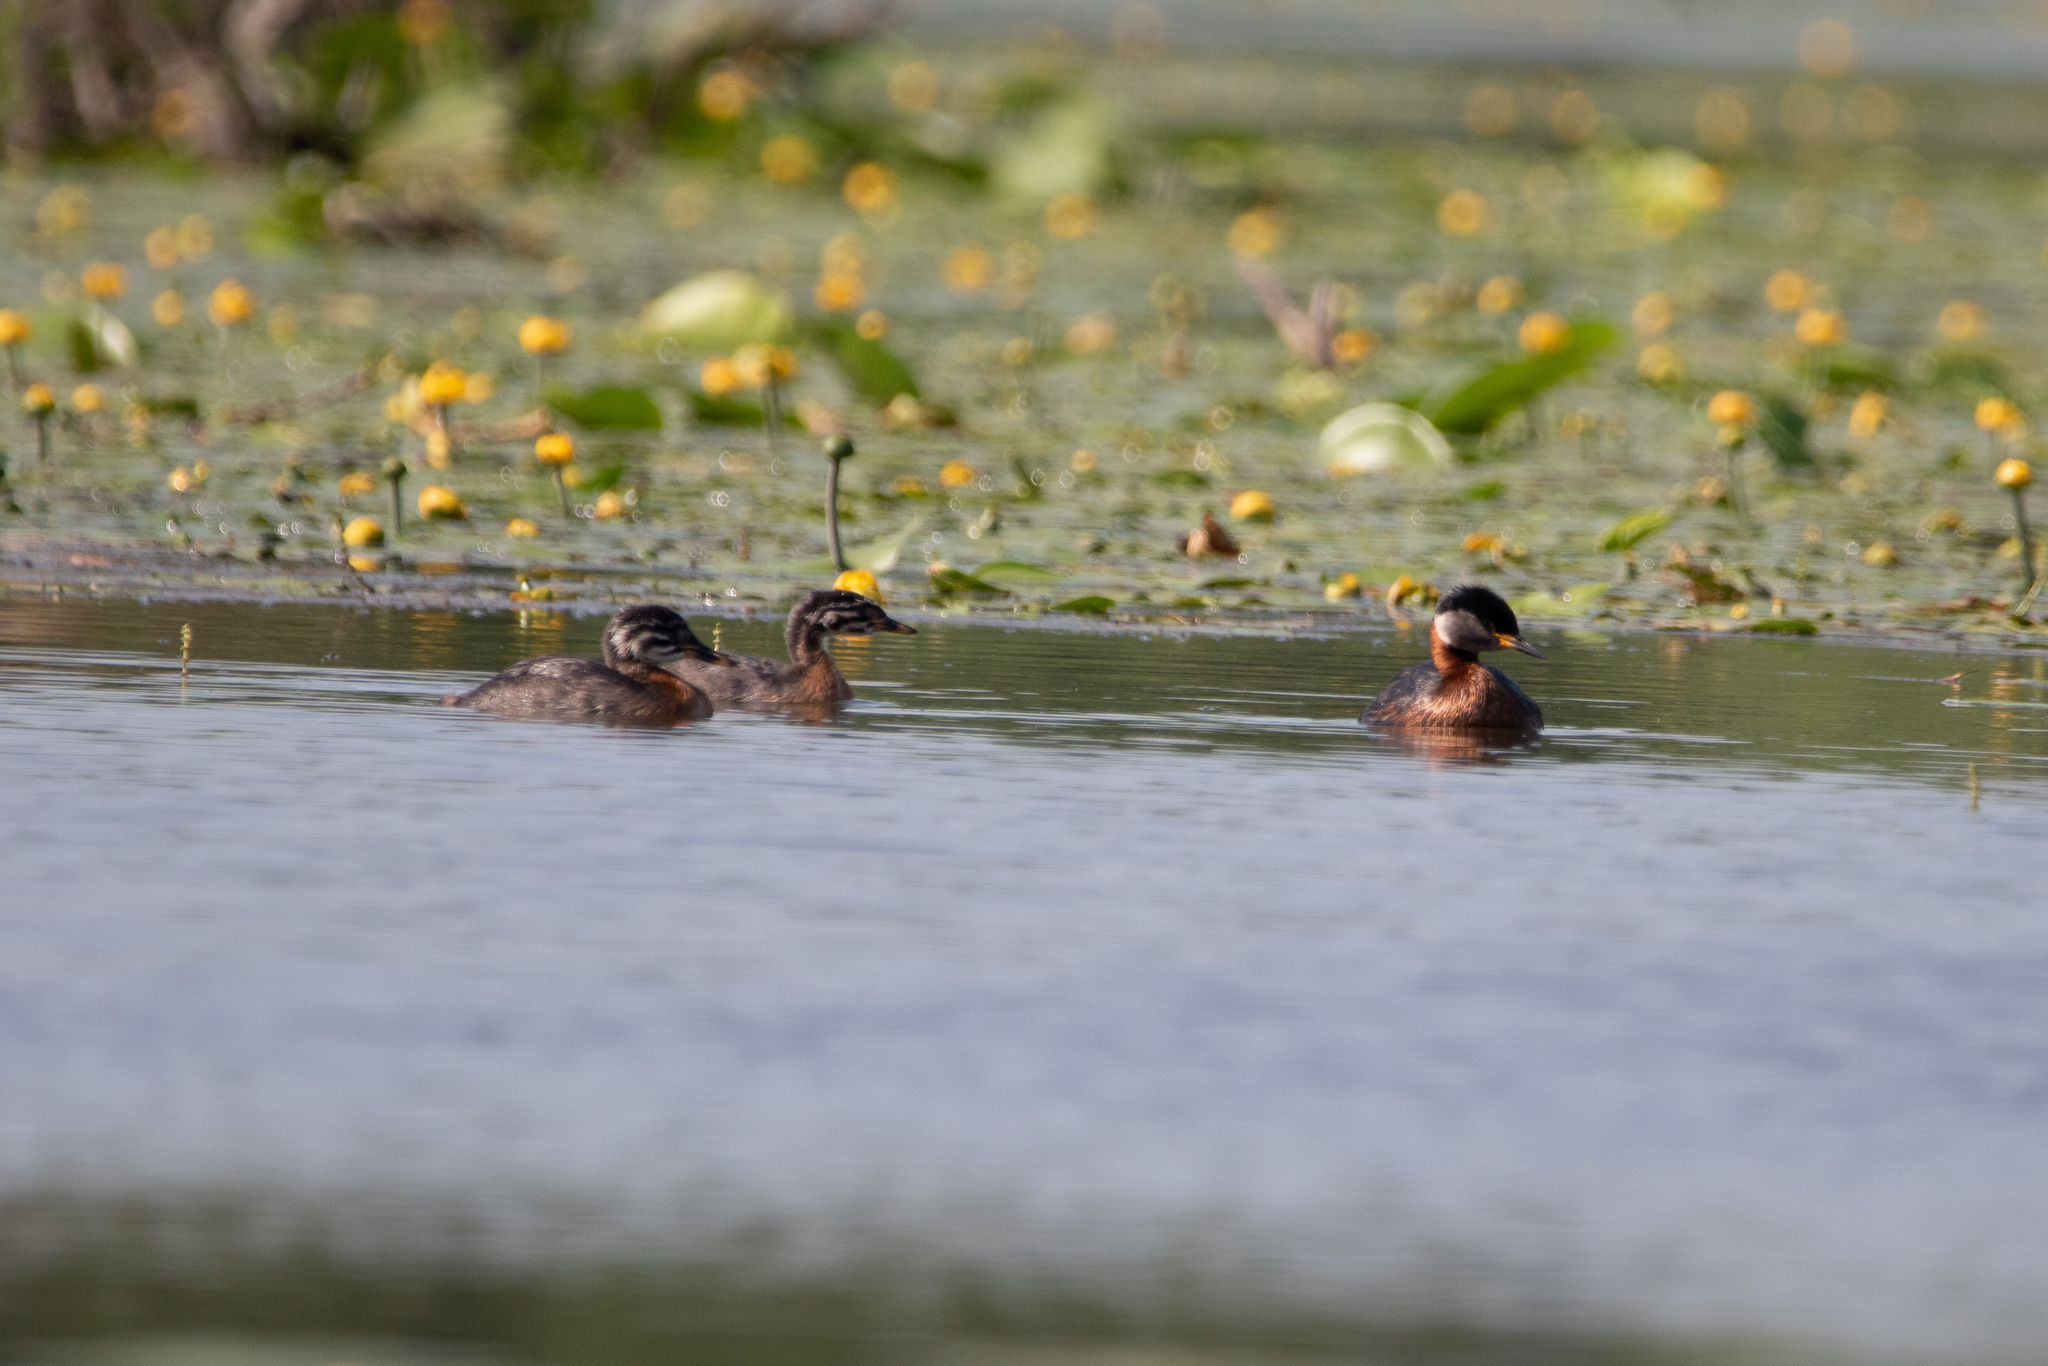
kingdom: Animalia
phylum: Chordata
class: Aves
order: Podicipediformes
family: Podicipedidae
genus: Podiceps
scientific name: Podiceps grisegena
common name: Red-necked grebe
